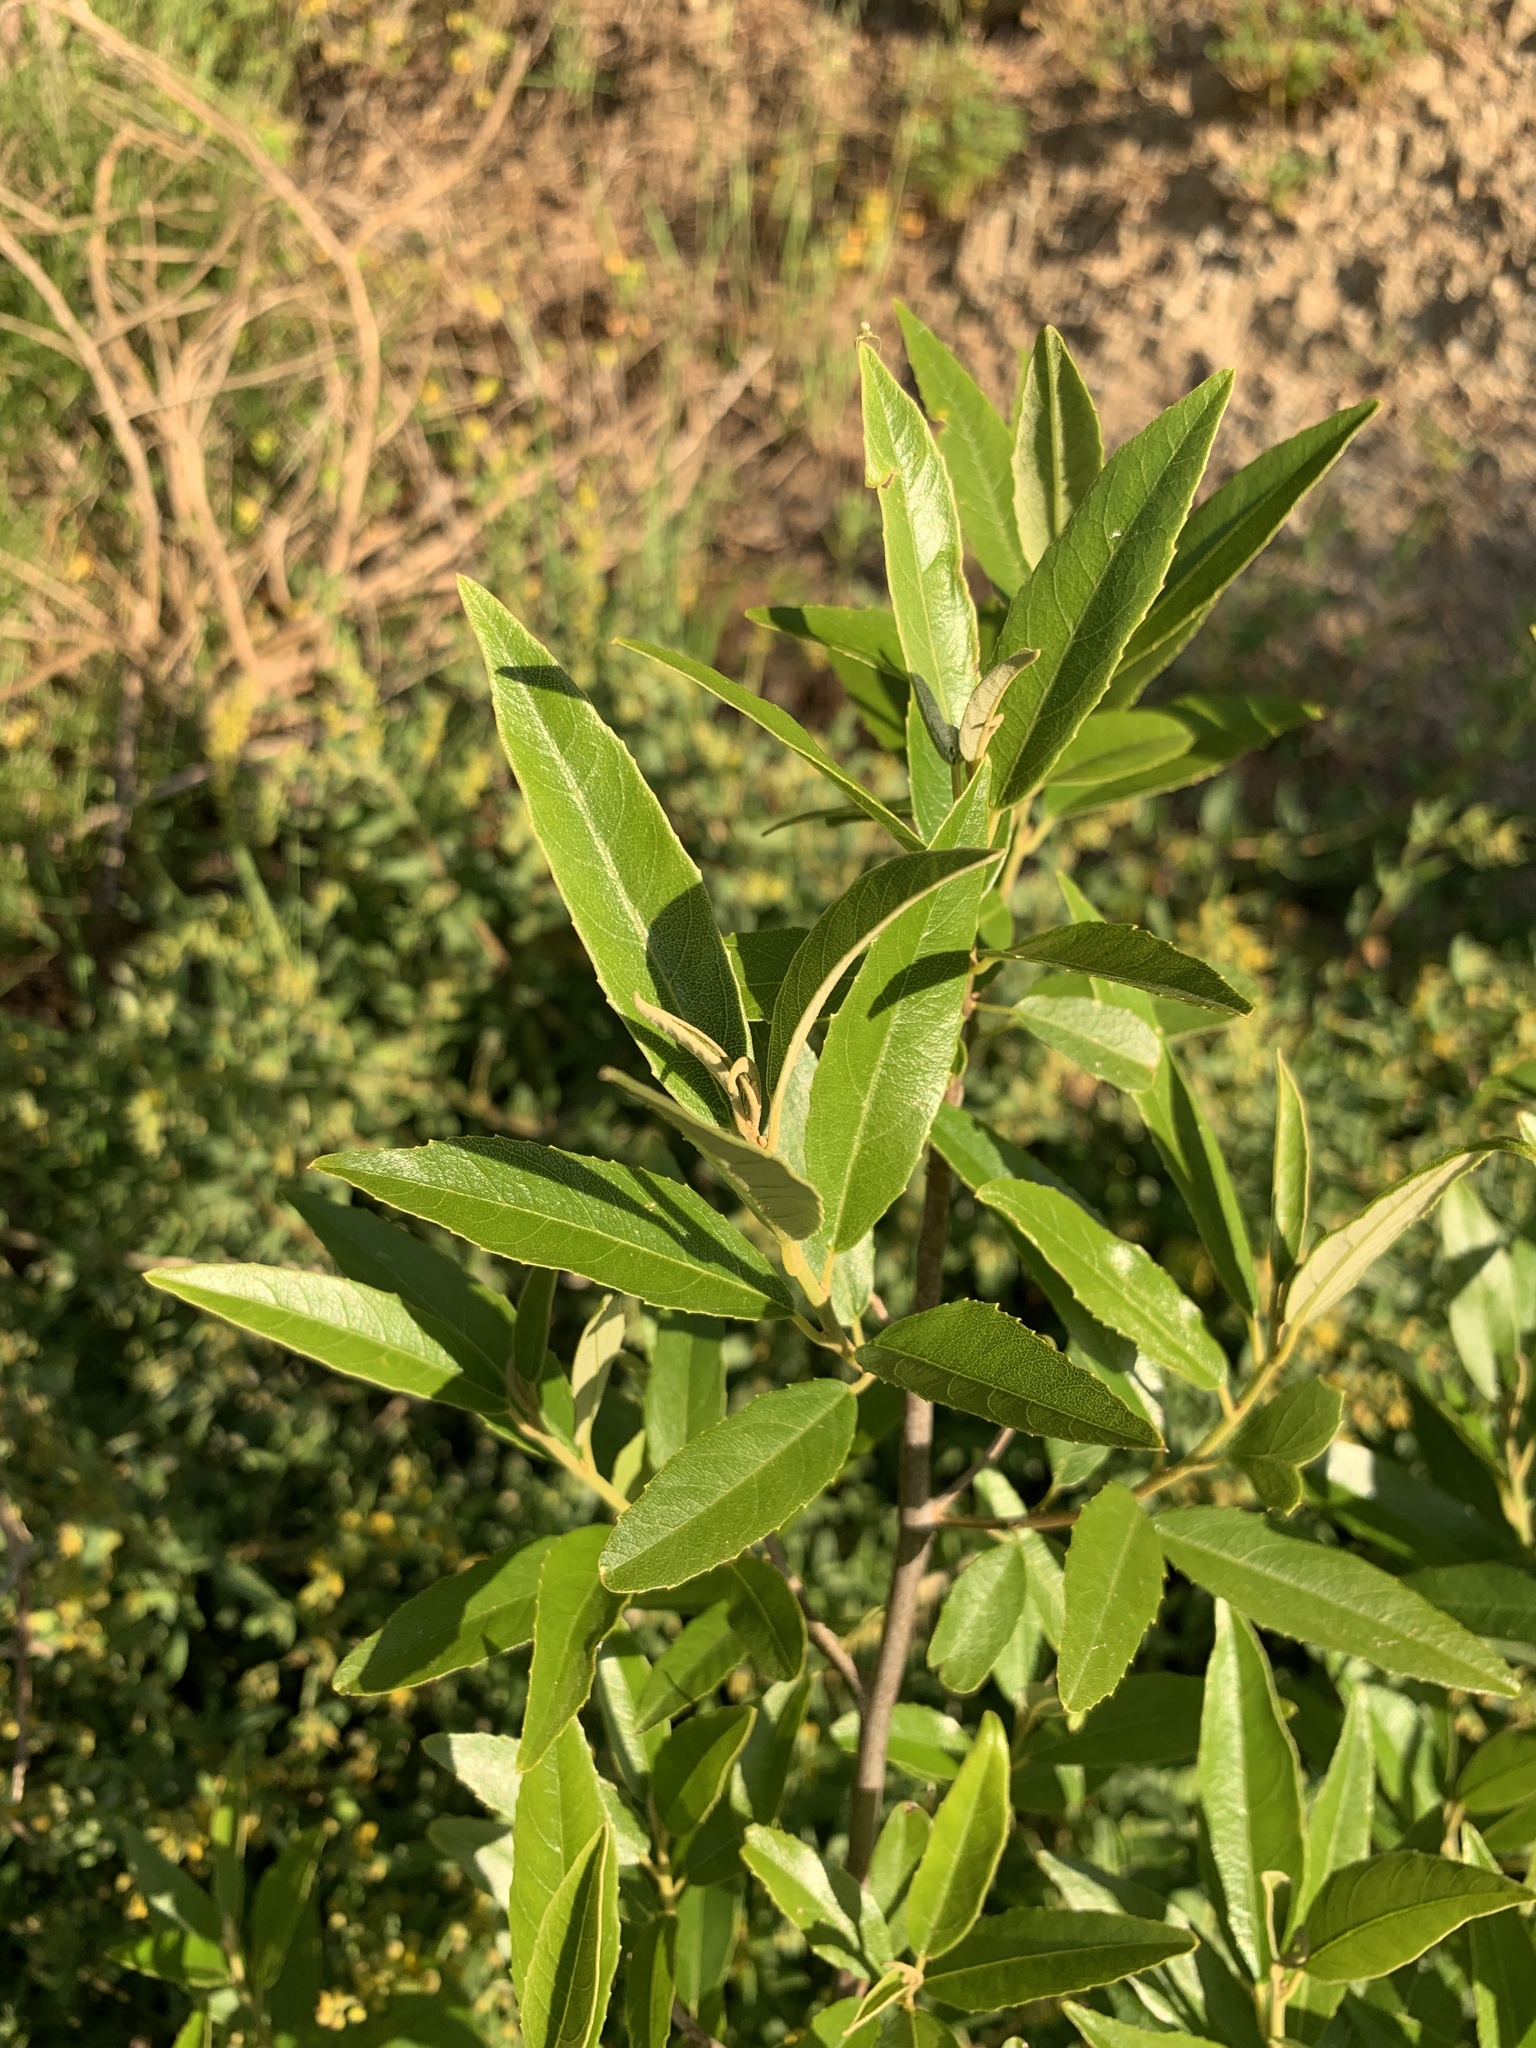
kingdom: Plantae
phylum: Tracheophyta
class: Magnoliopsida
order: Malpighiales
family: Achariaceae
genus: Kiggelaria
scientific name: Kiggelaria africana
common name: Wild peach
